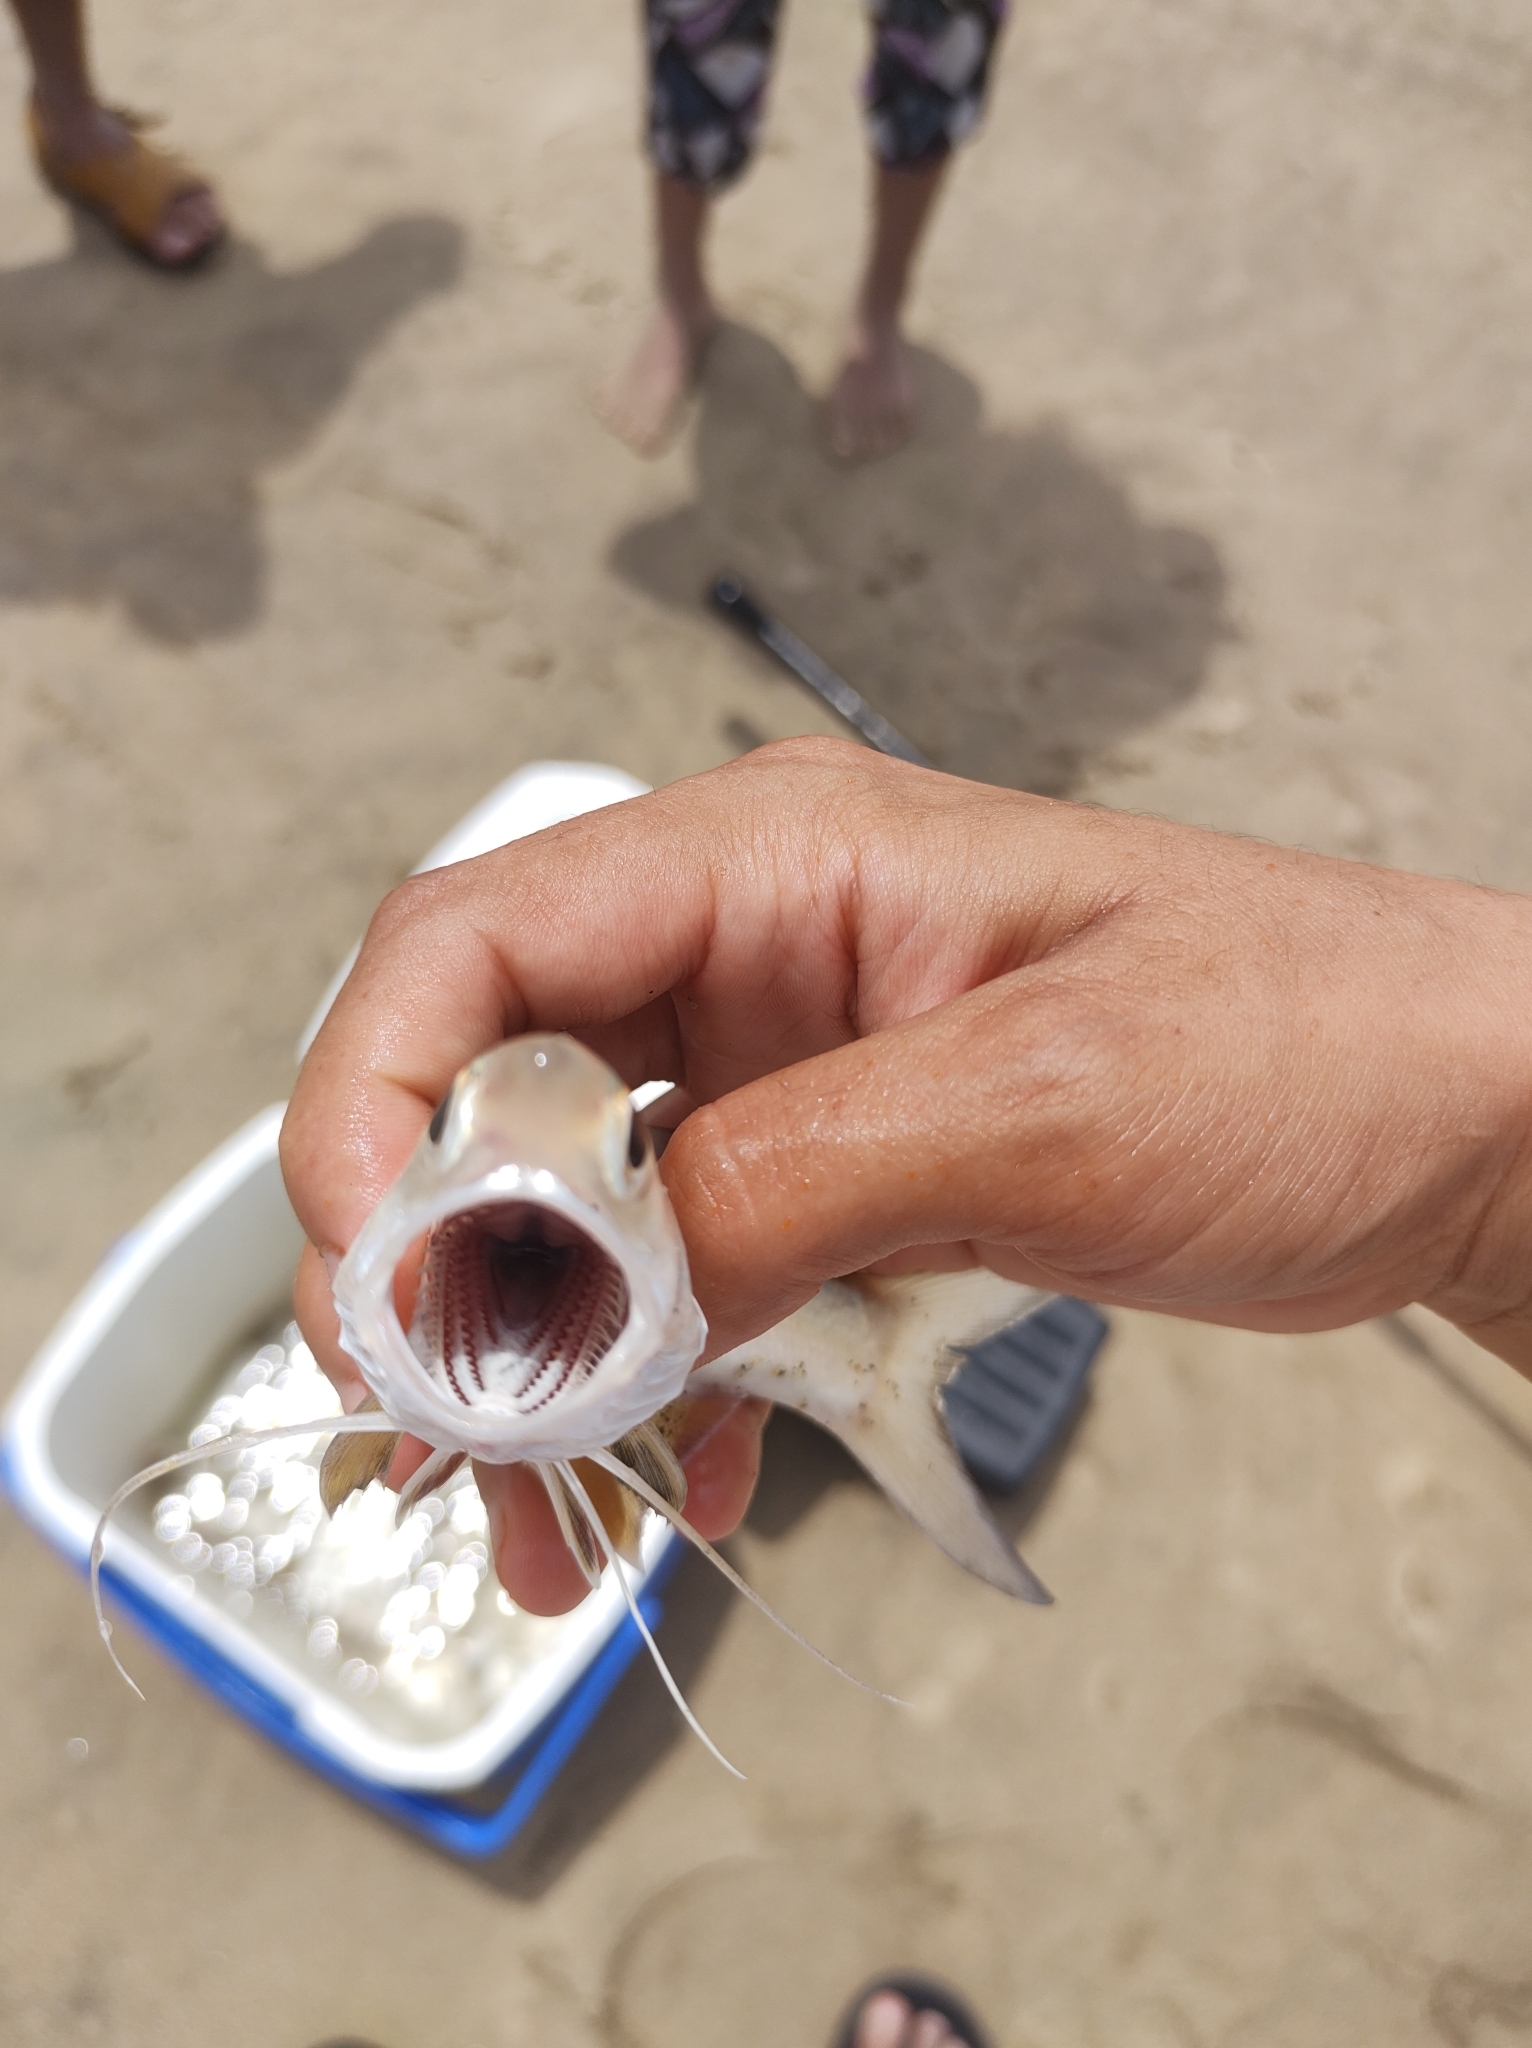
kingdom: Animalia
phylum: Chordata
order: Perciformes
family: Polynemidae
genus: Polydactylus
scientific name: Polydactylus approximans
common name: Blue bobo
